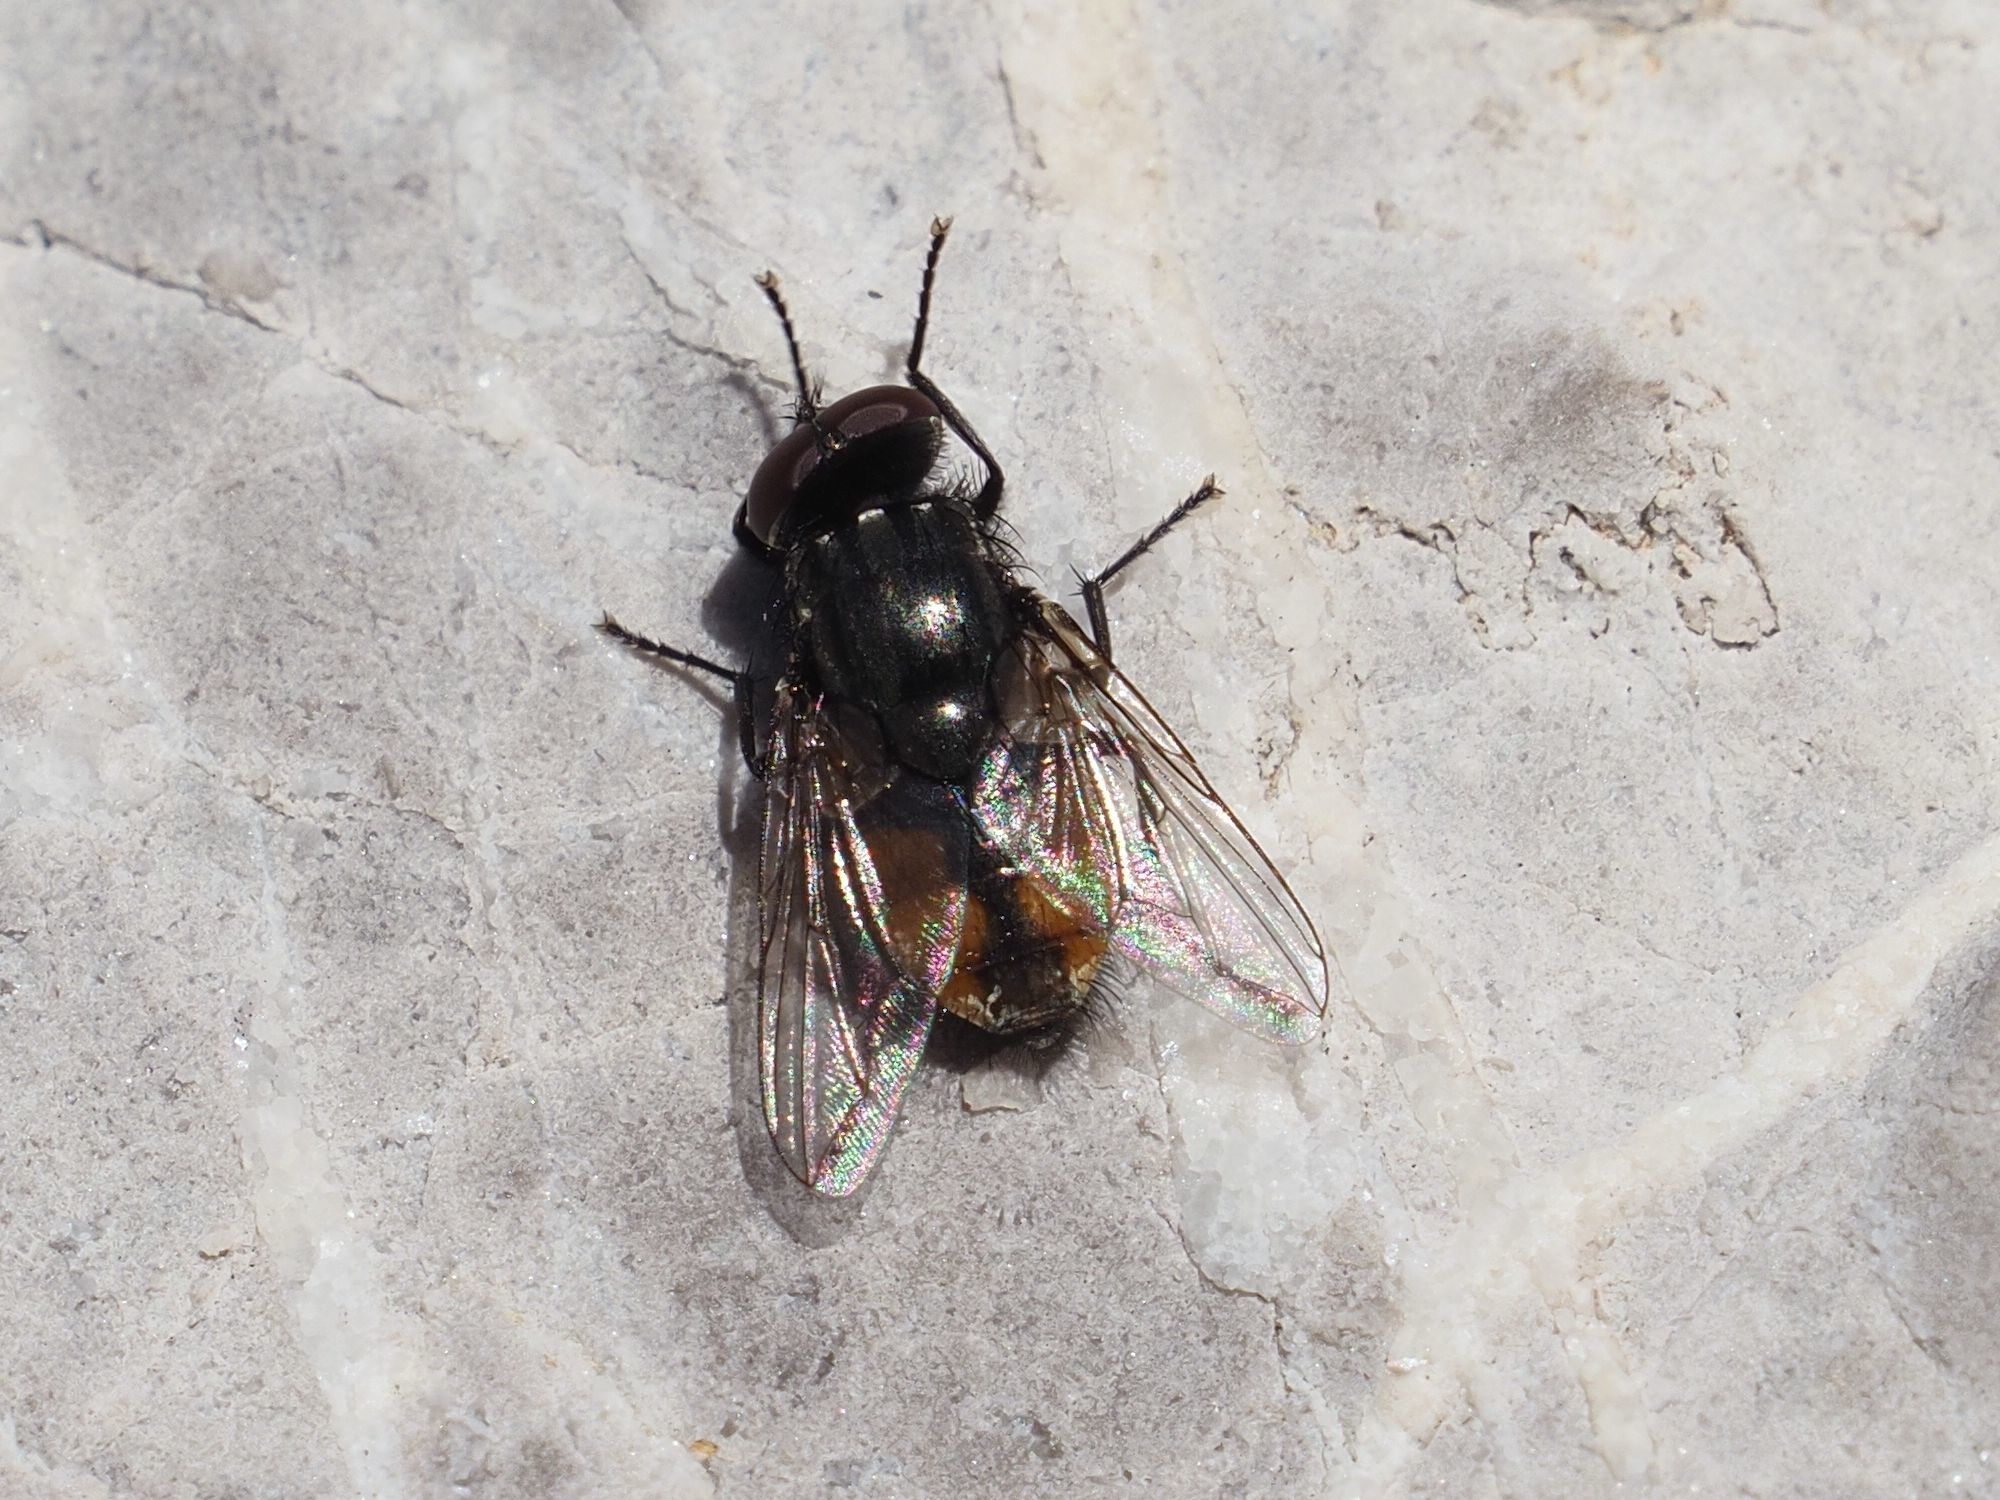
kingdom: Animalia
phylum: Arthropoda
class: Insecta
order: Diptera
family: Muscidae
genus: Musca
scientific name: Musca autumnalis
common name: Face fly
